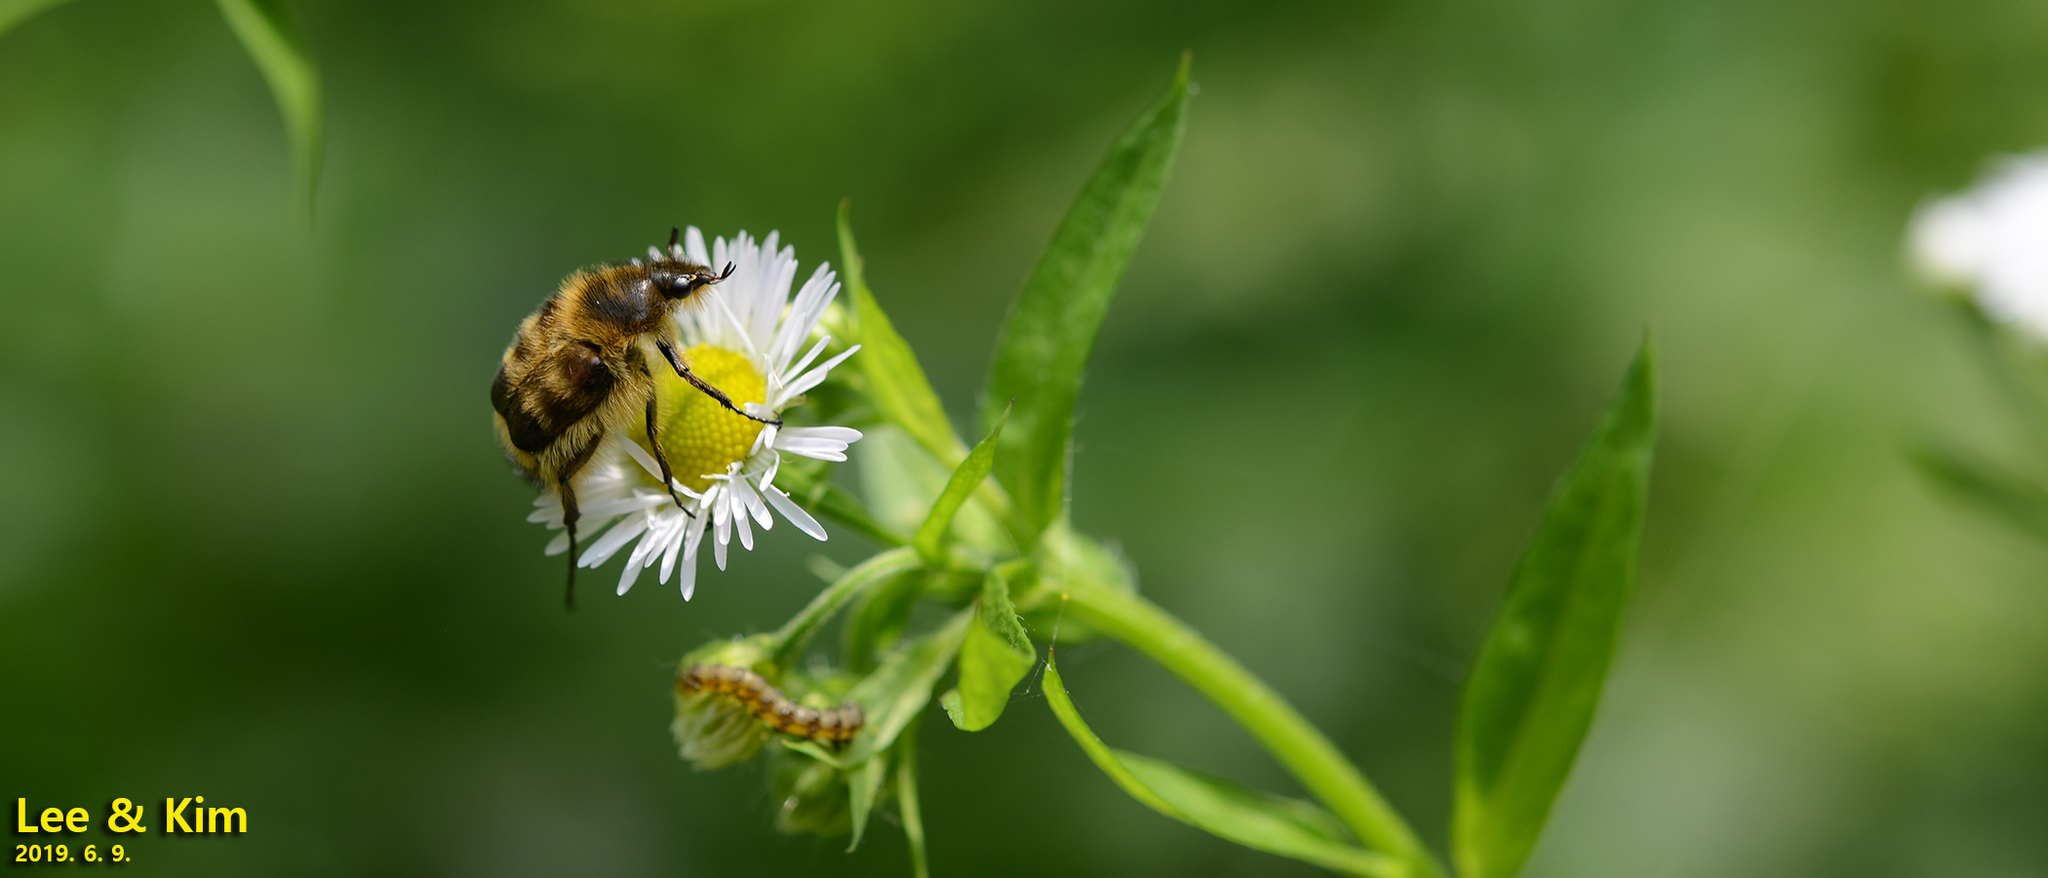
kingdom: Animalia
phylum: Arthropoda
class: Insecta
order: Coleoptera
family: Scarabaeidae
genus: Lasiotrichius
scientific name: Lasiotrichius succinctus
